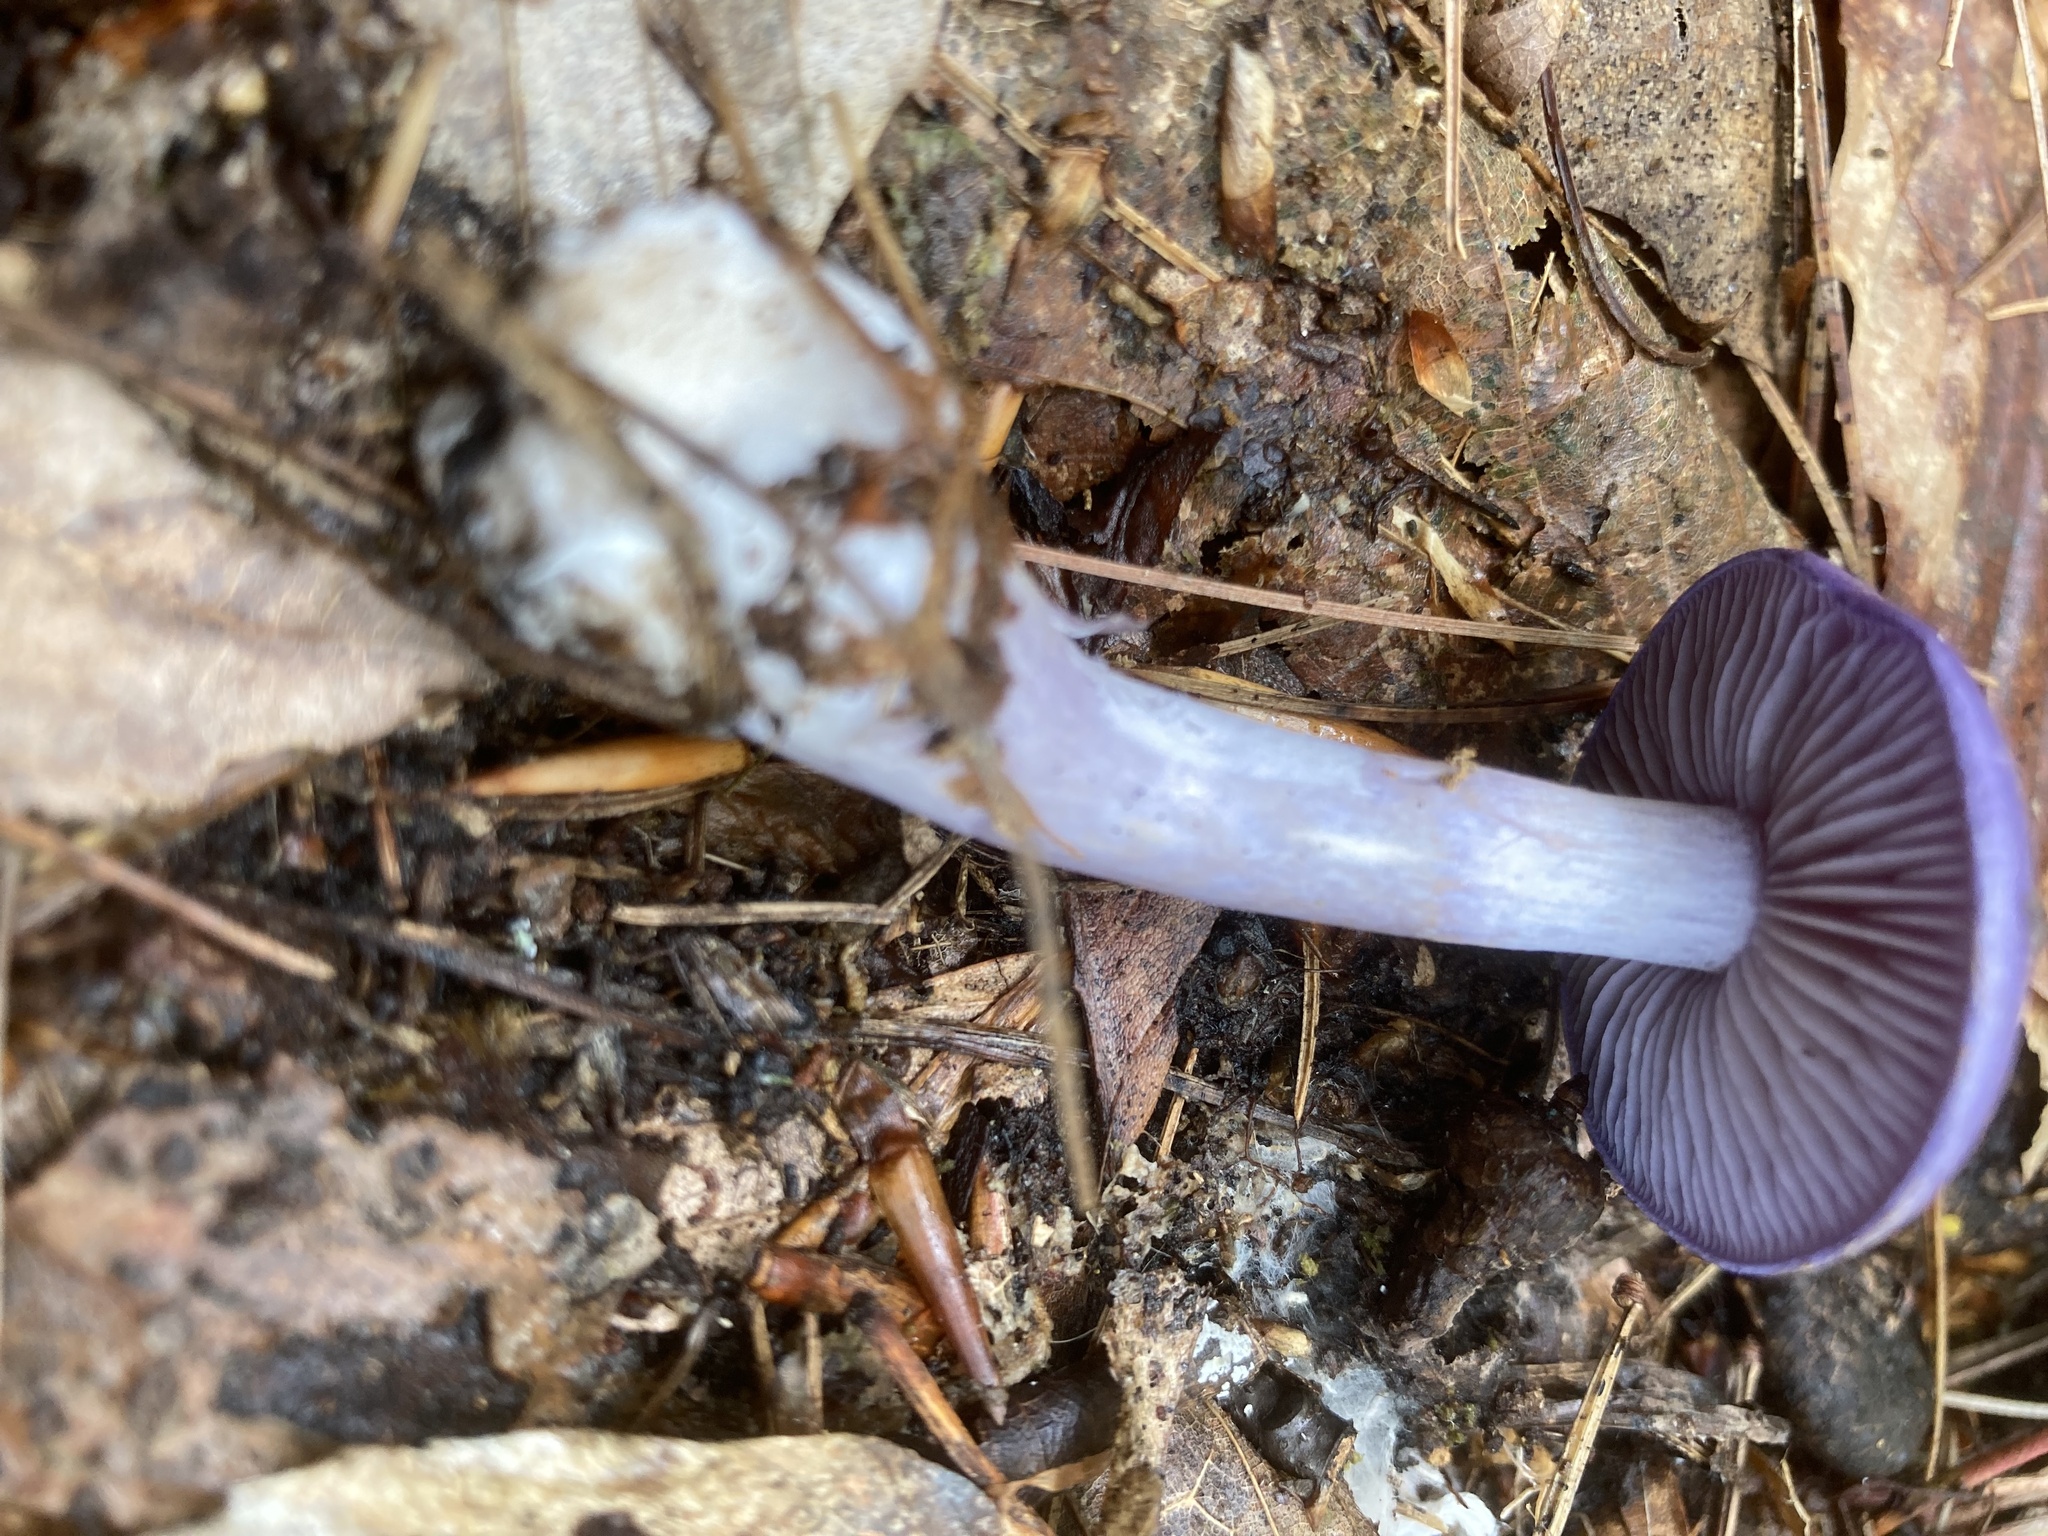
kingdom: Fungi
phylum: Basidiomycota
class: Agaricomycetes
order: Agaricales
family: Cortinariaceae
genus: Cortinarius
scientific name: Cortinarius iodes
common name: Viscid violet cort
